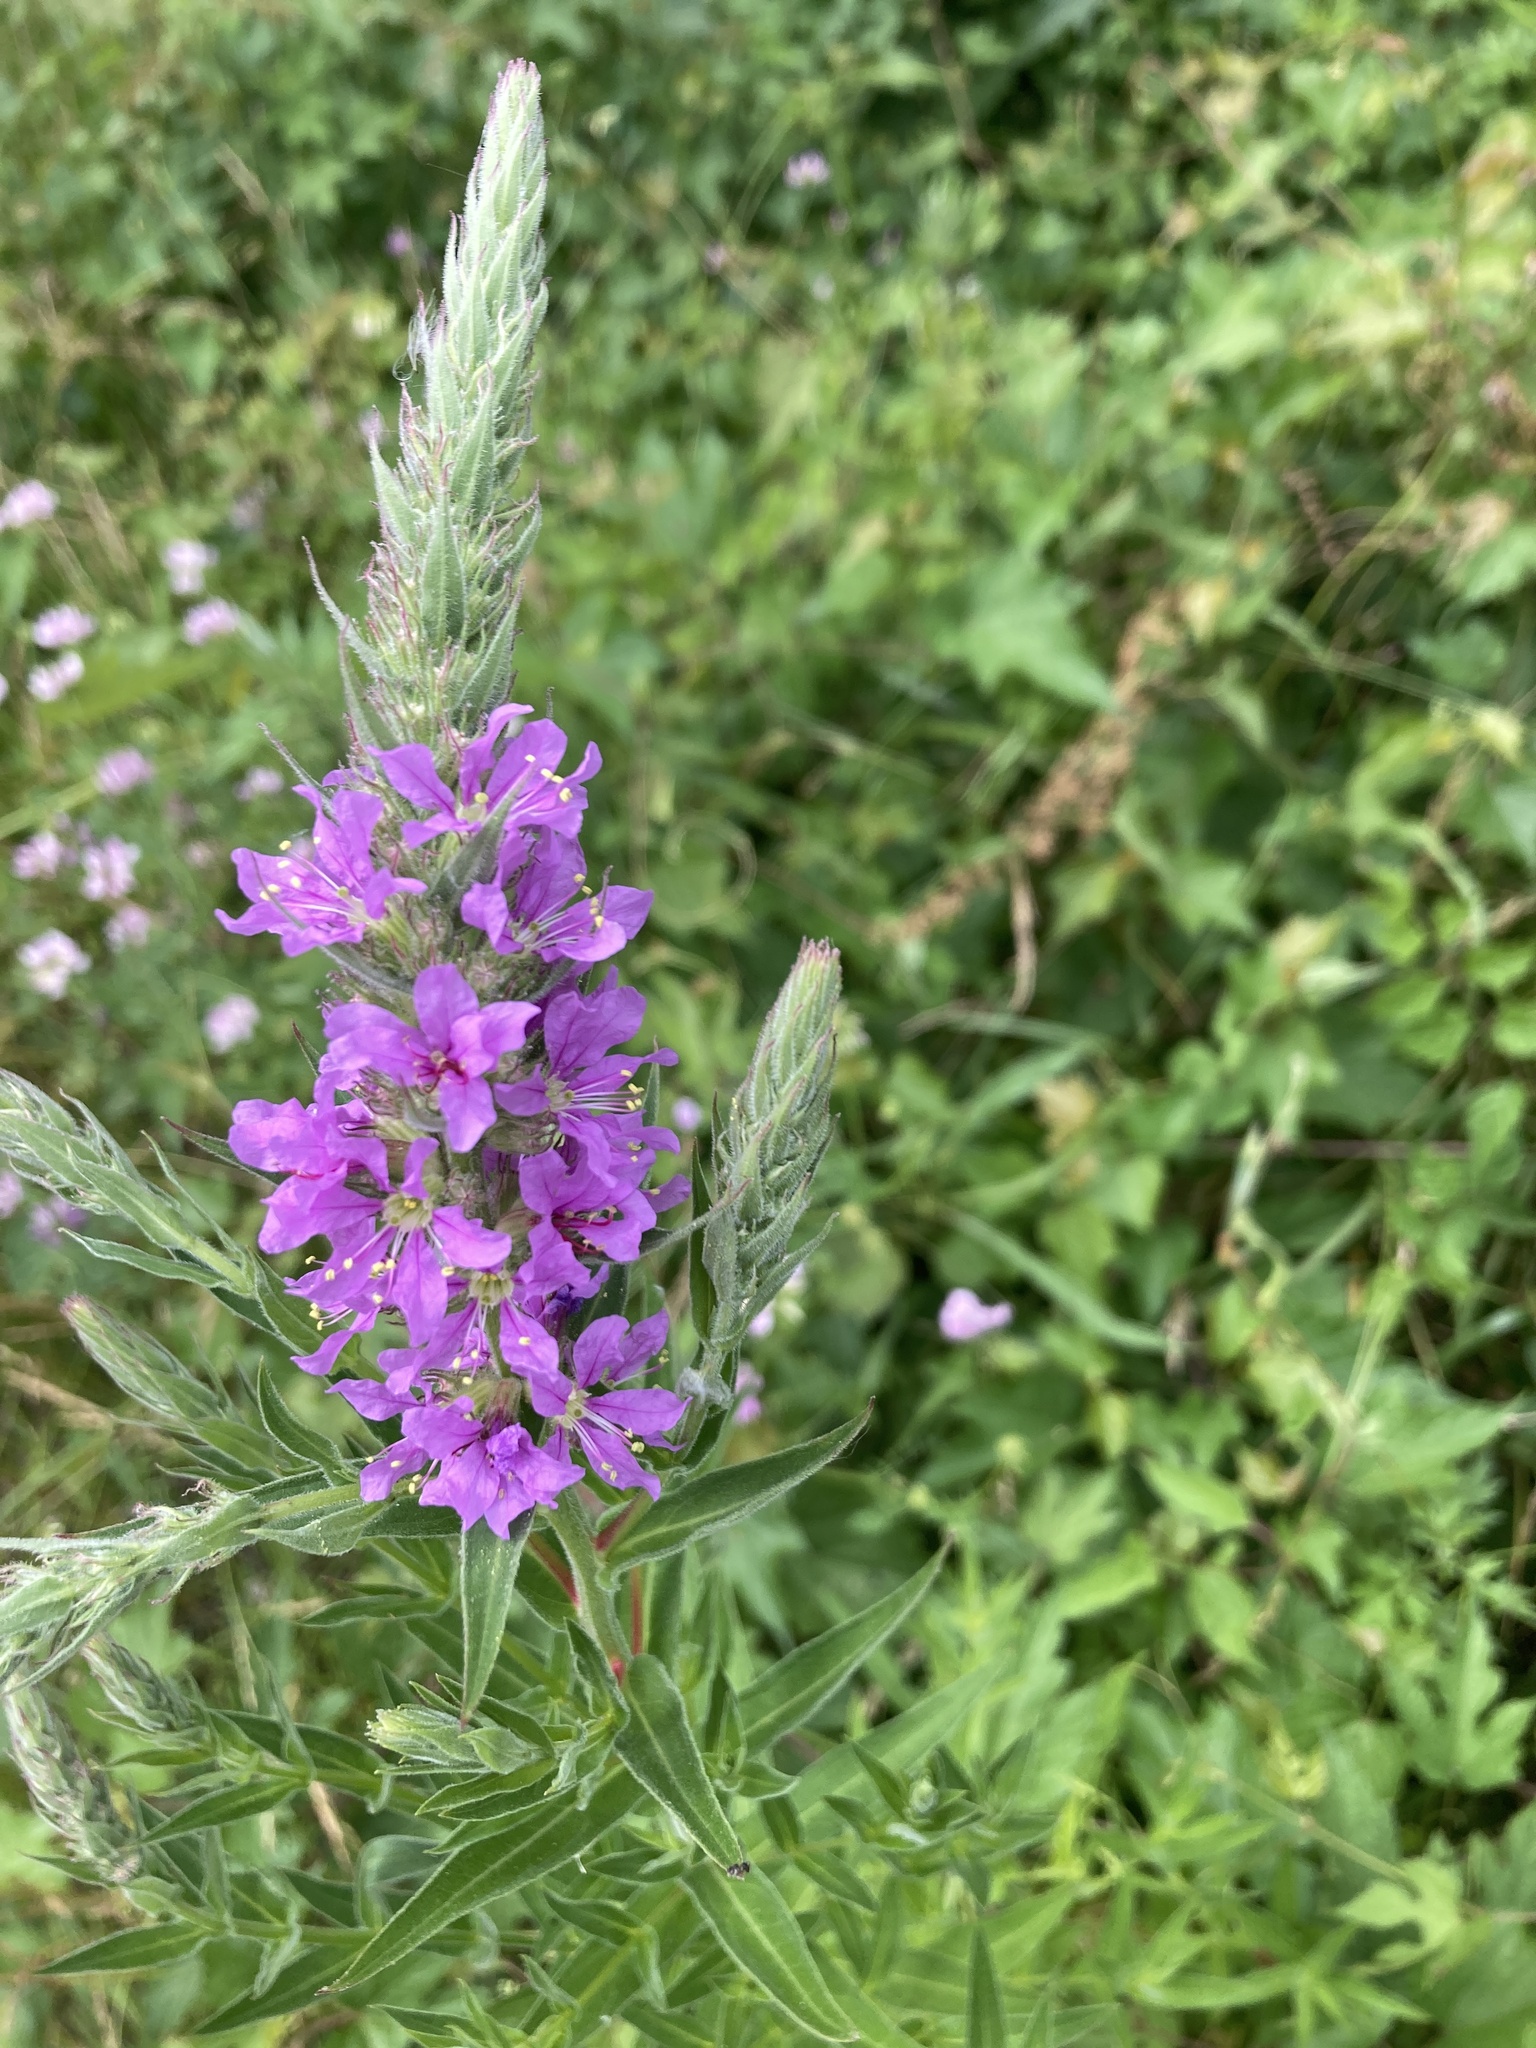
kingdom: Plantae
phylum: Tracheophyta
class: Magnoliopsida
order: Myrtales
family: Lythraceae
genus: Lythrum
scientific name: Lythrum salicaria
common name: Purple loosestrife
